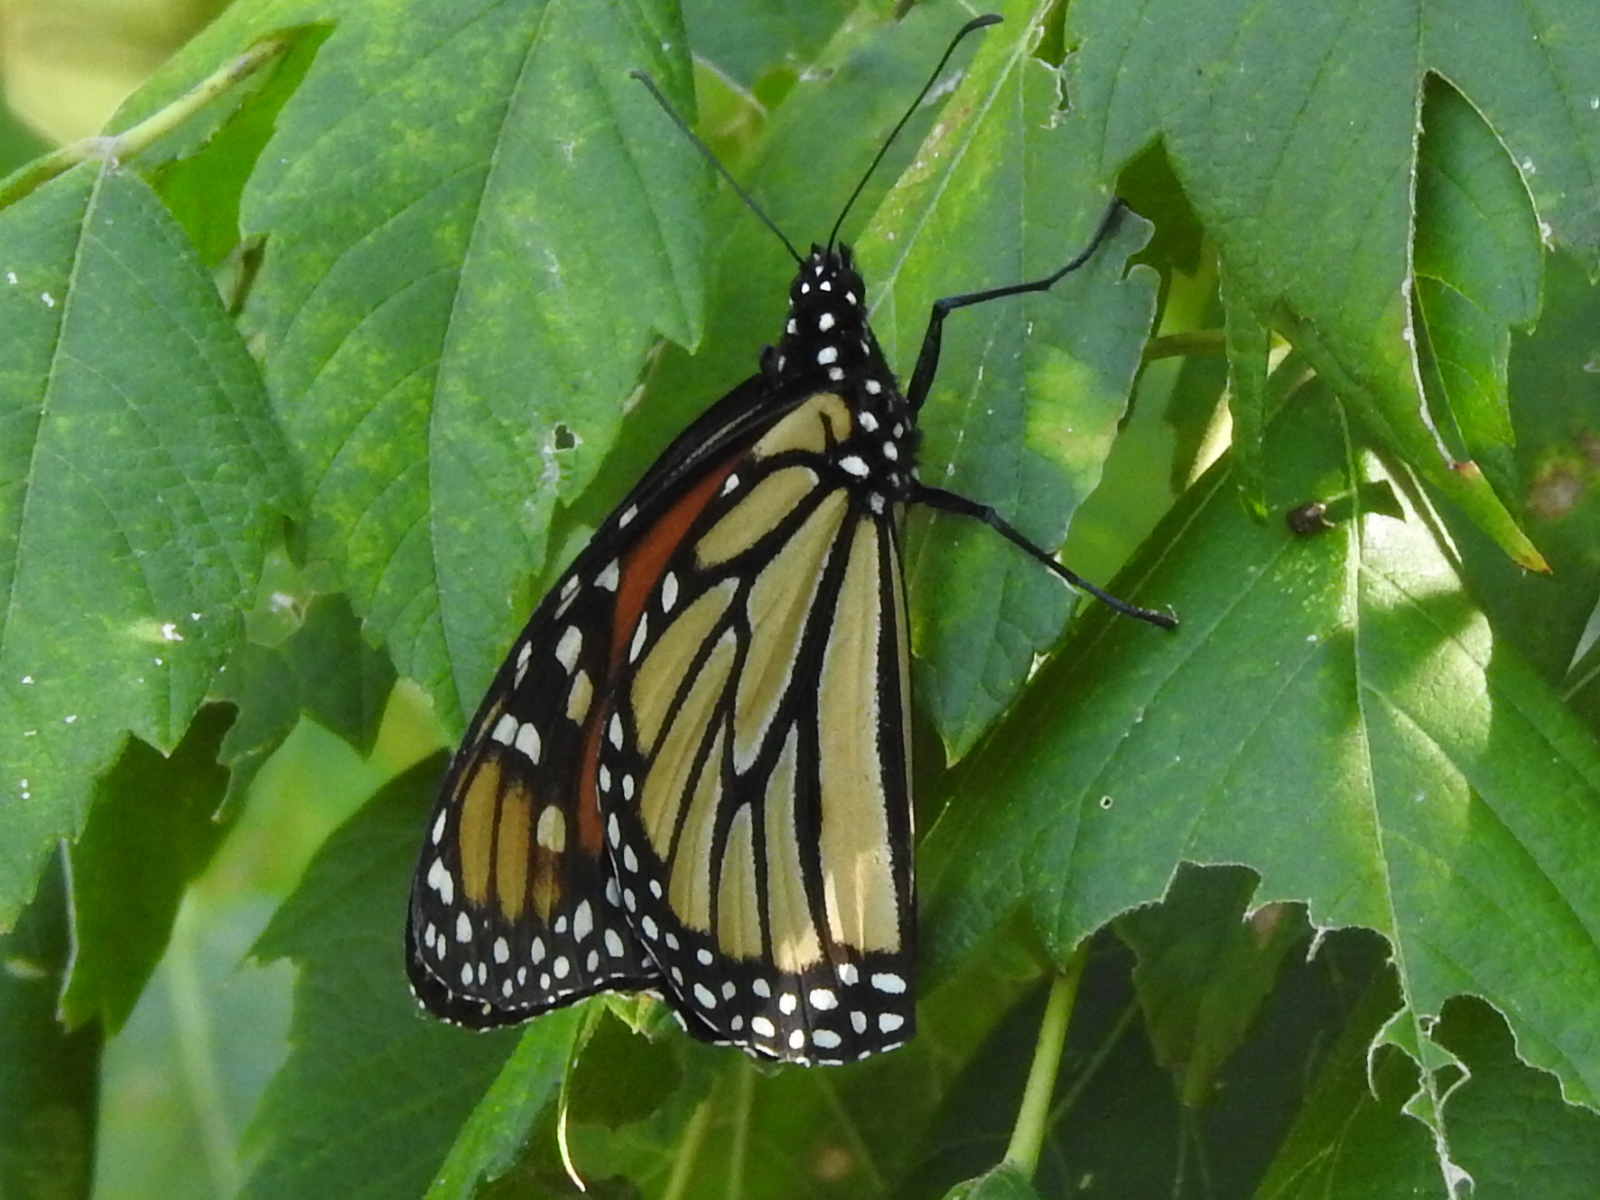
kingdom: Animalia
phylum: Arthropoda
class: Insecta
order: Lepidoptera
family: Nymphalidae
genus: Danaus
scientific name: Danaus plexippus
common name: Monarch
